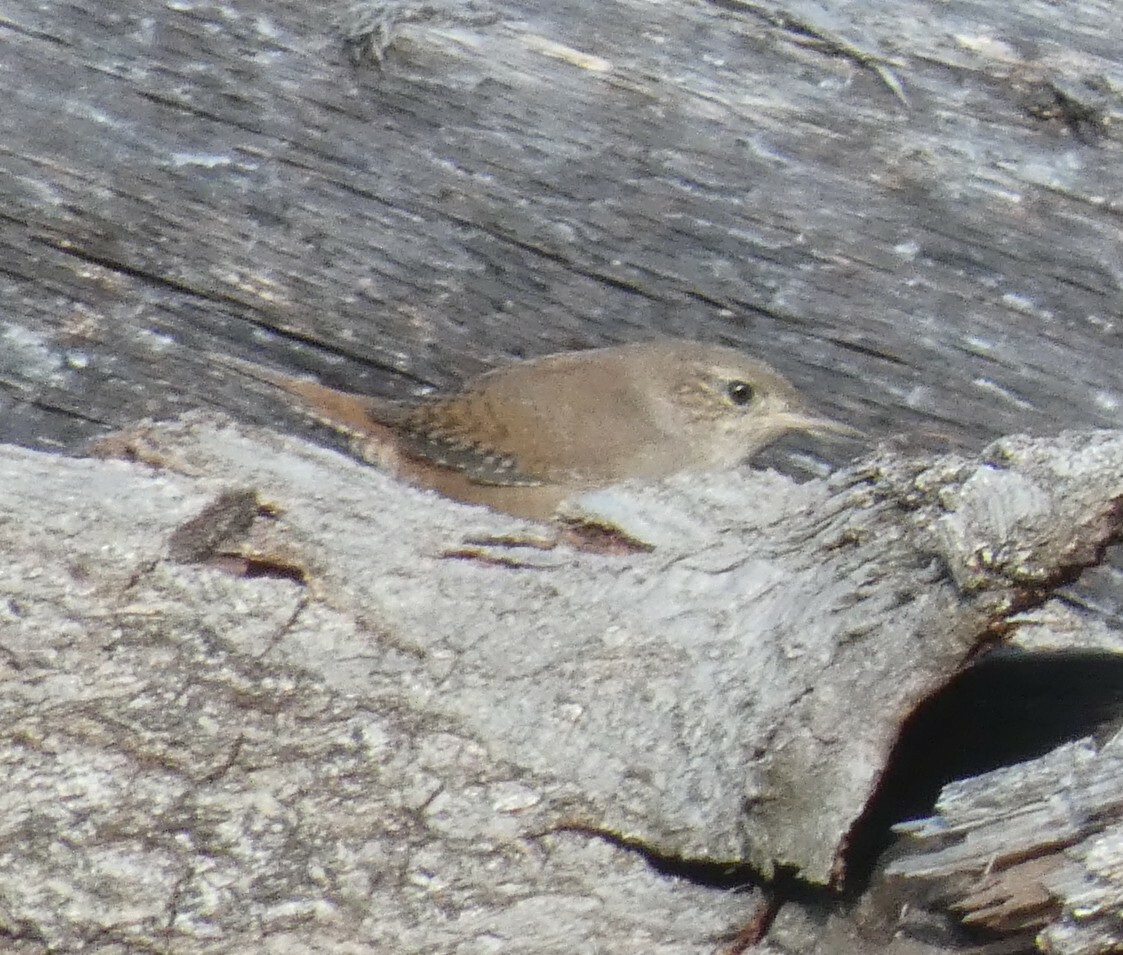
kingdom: Animalia
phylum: Chordata
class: Aves
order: Passeriformes
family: Troglodytidae
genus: Troglodytes
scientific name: Troglodytes aedon
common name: House wren
